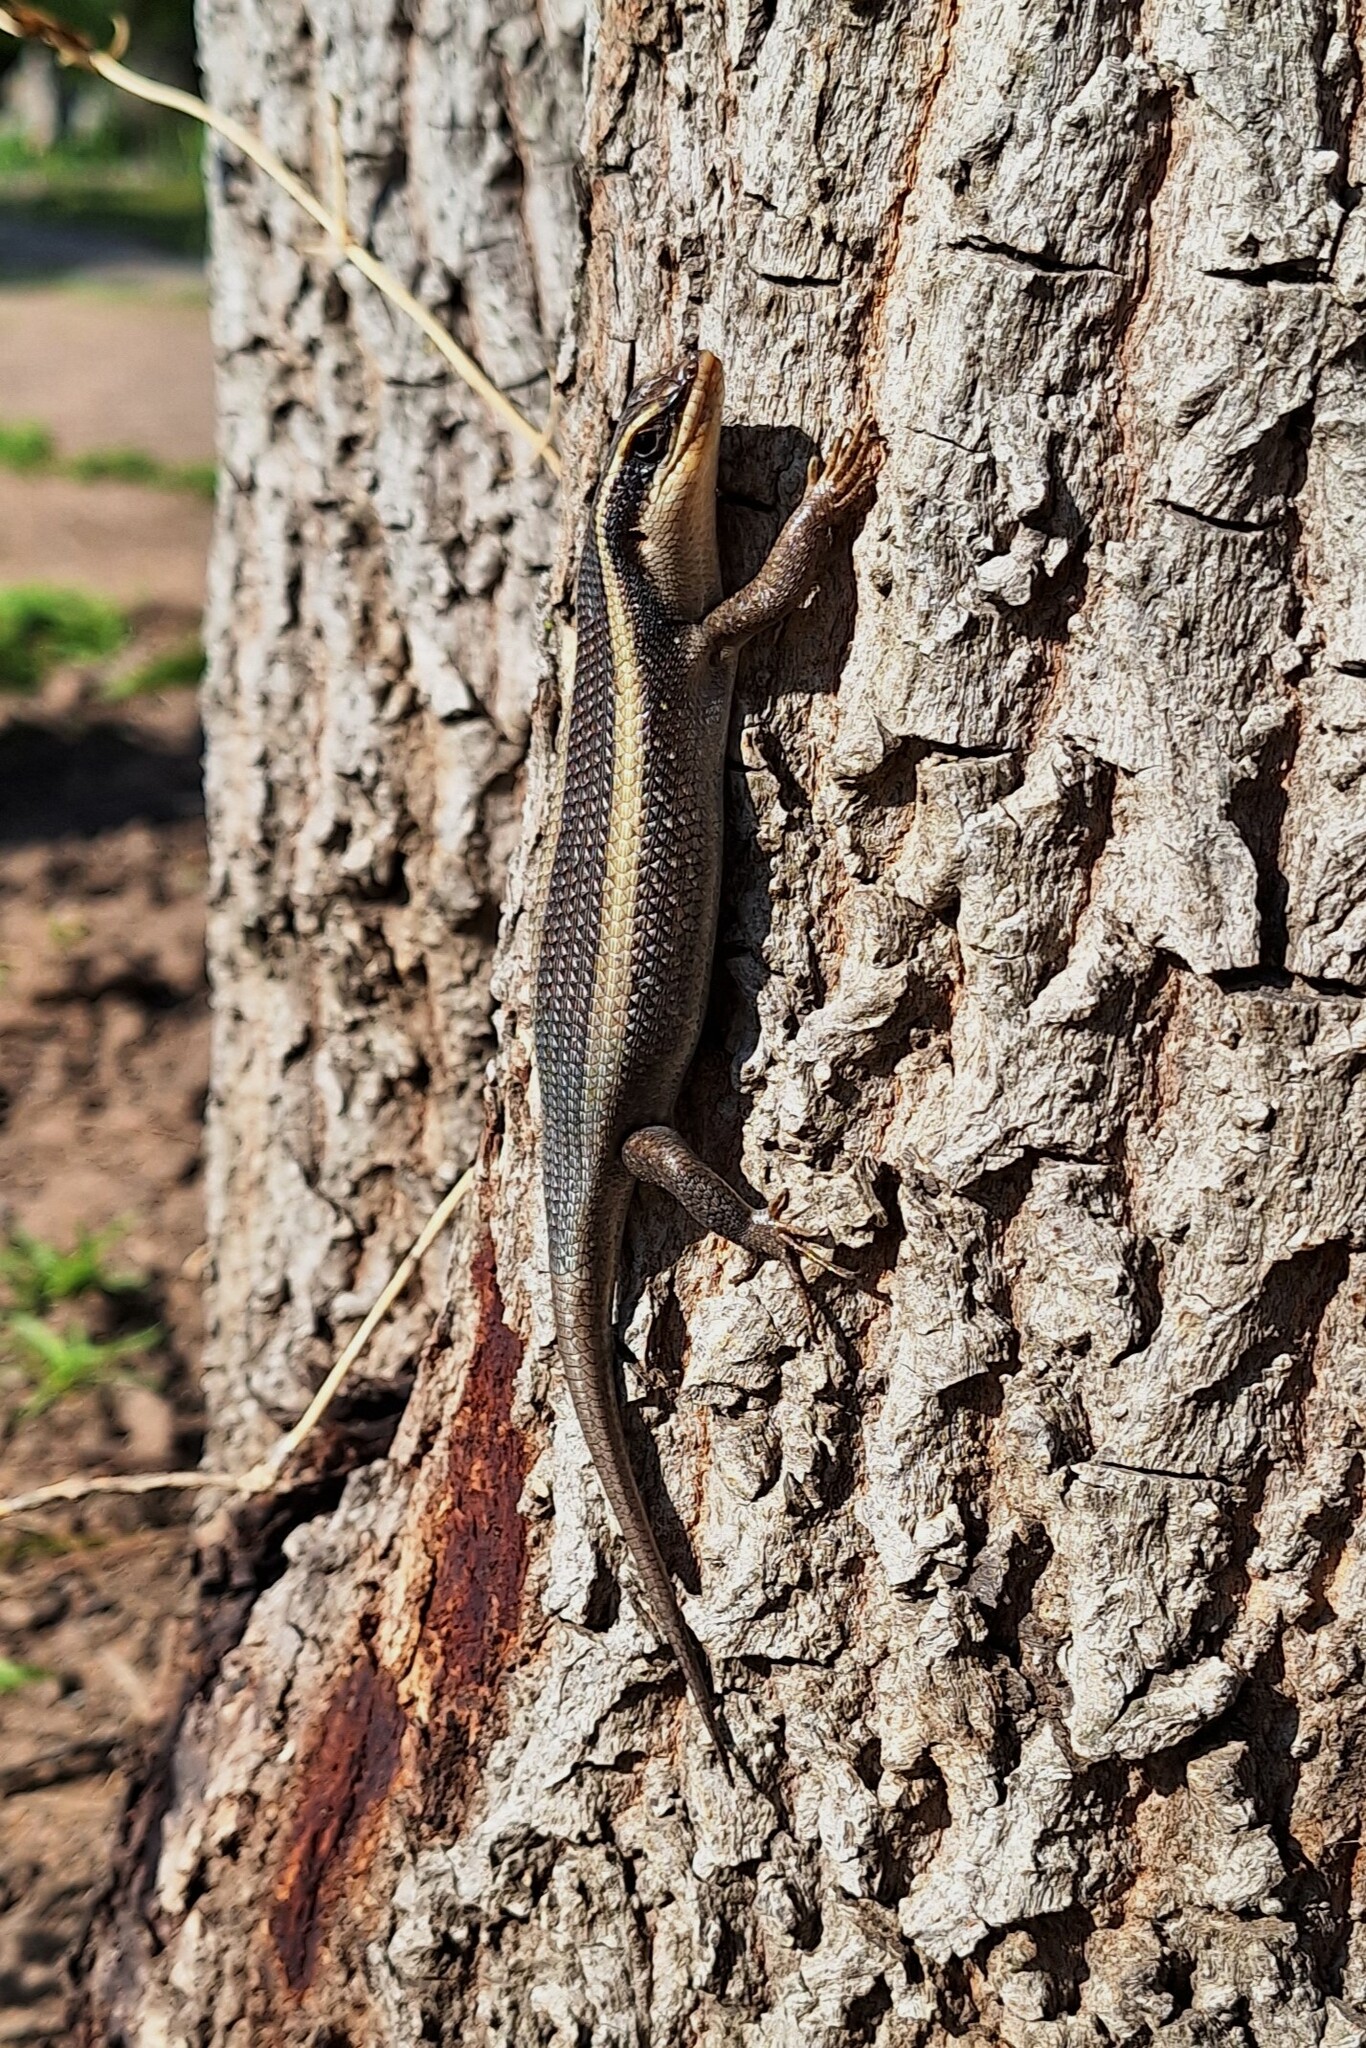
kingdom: Animalia
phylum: Chordata
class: Squamata
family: Scincidae
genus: Trachylepis
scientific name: Trachylepis striata
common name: African striped mabuya
